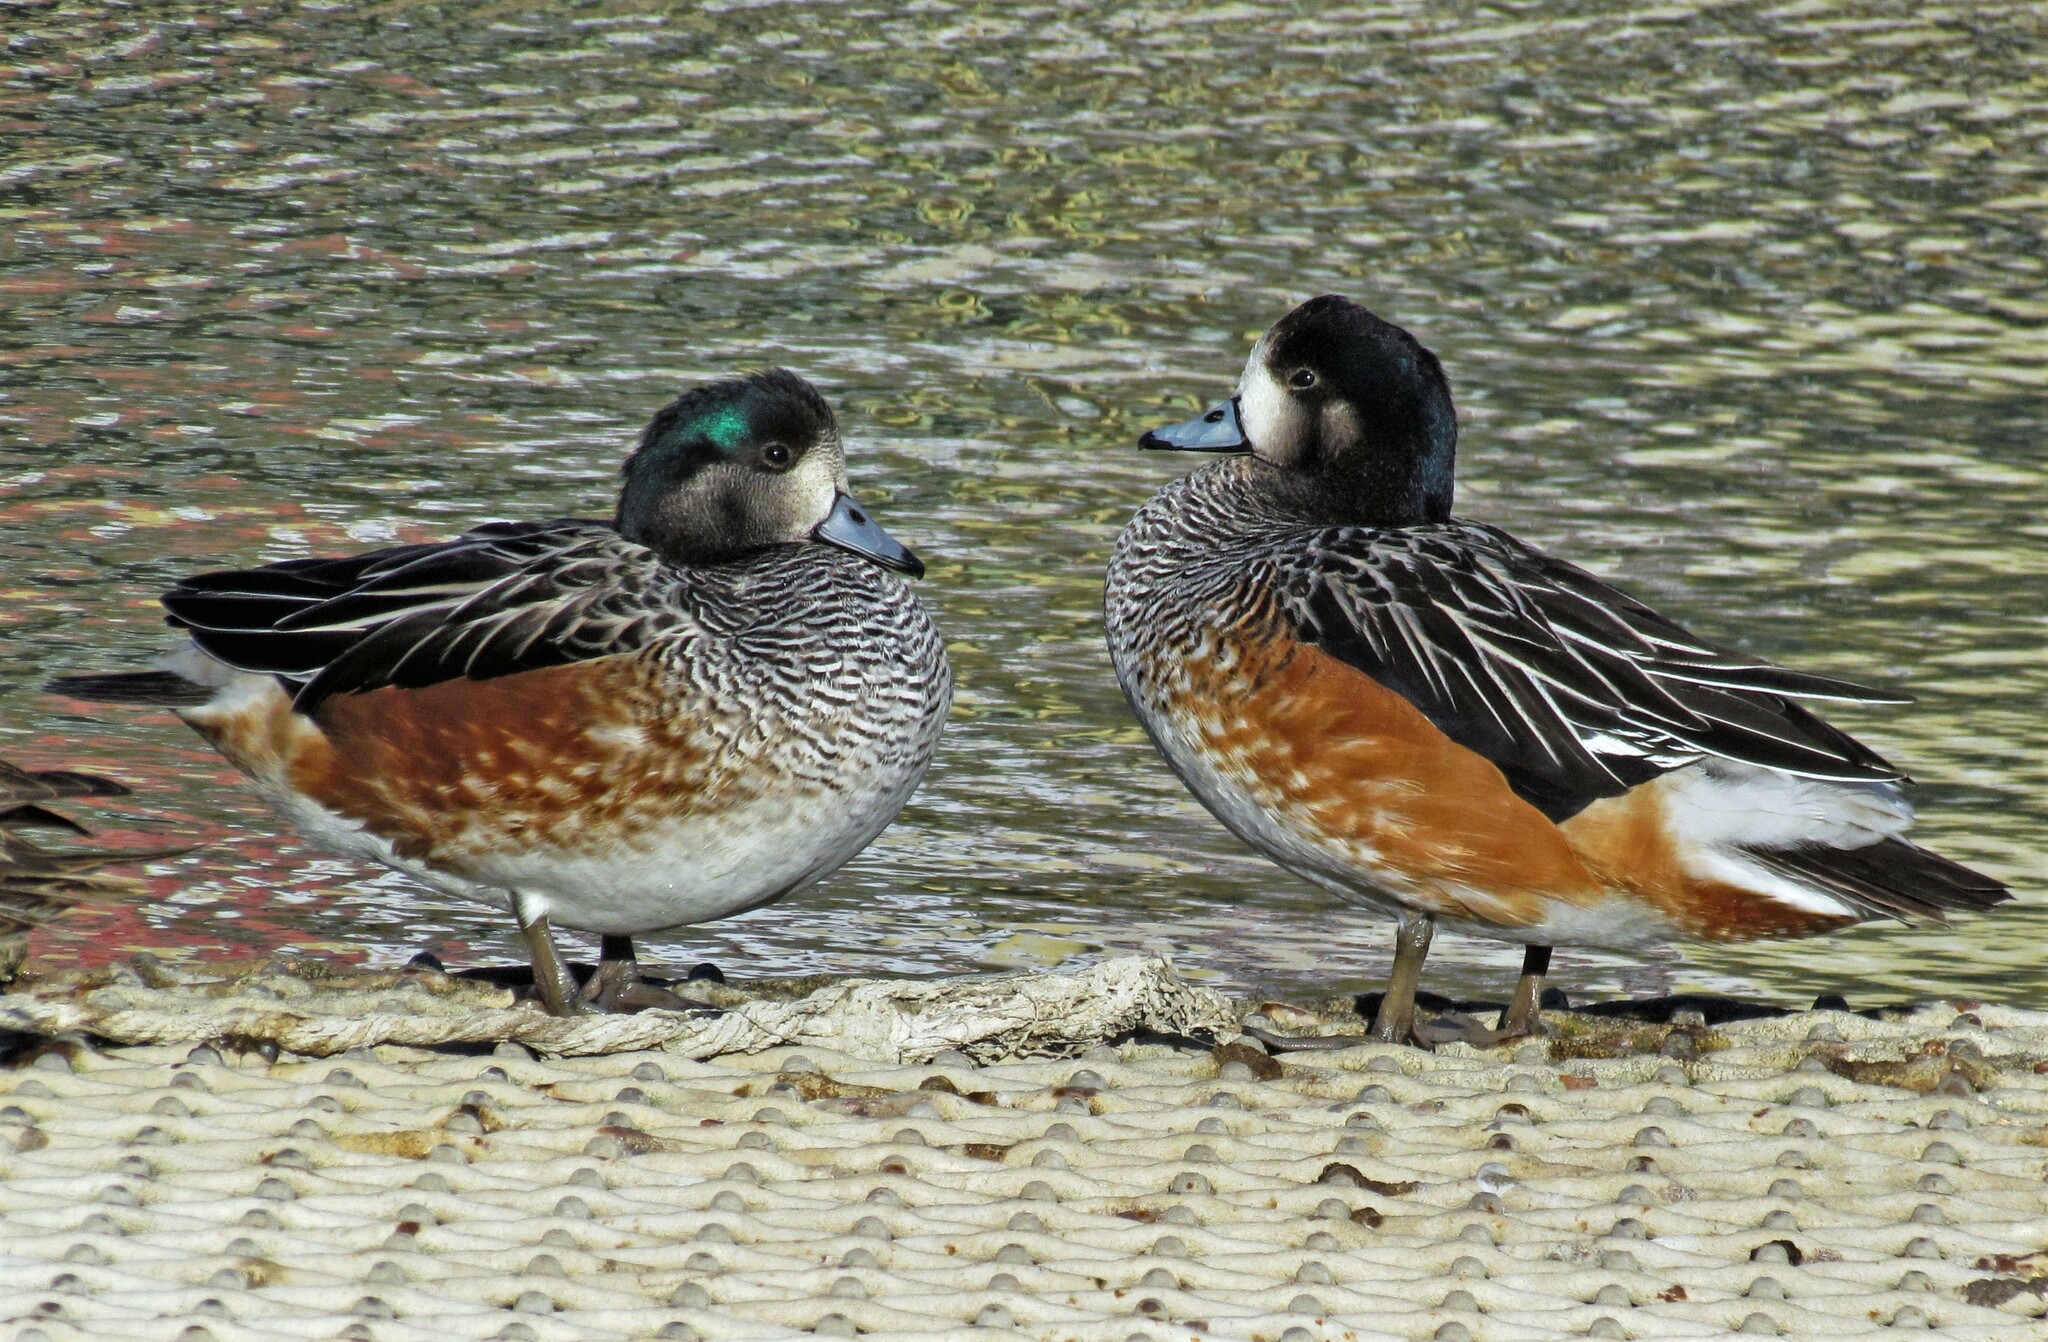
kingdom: Animalia
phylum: Chordata
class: Aves
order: Anseriformes
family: Anatidae
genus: Mareca
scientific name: Mareca sibilatrix
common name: Chiloe wigeon
